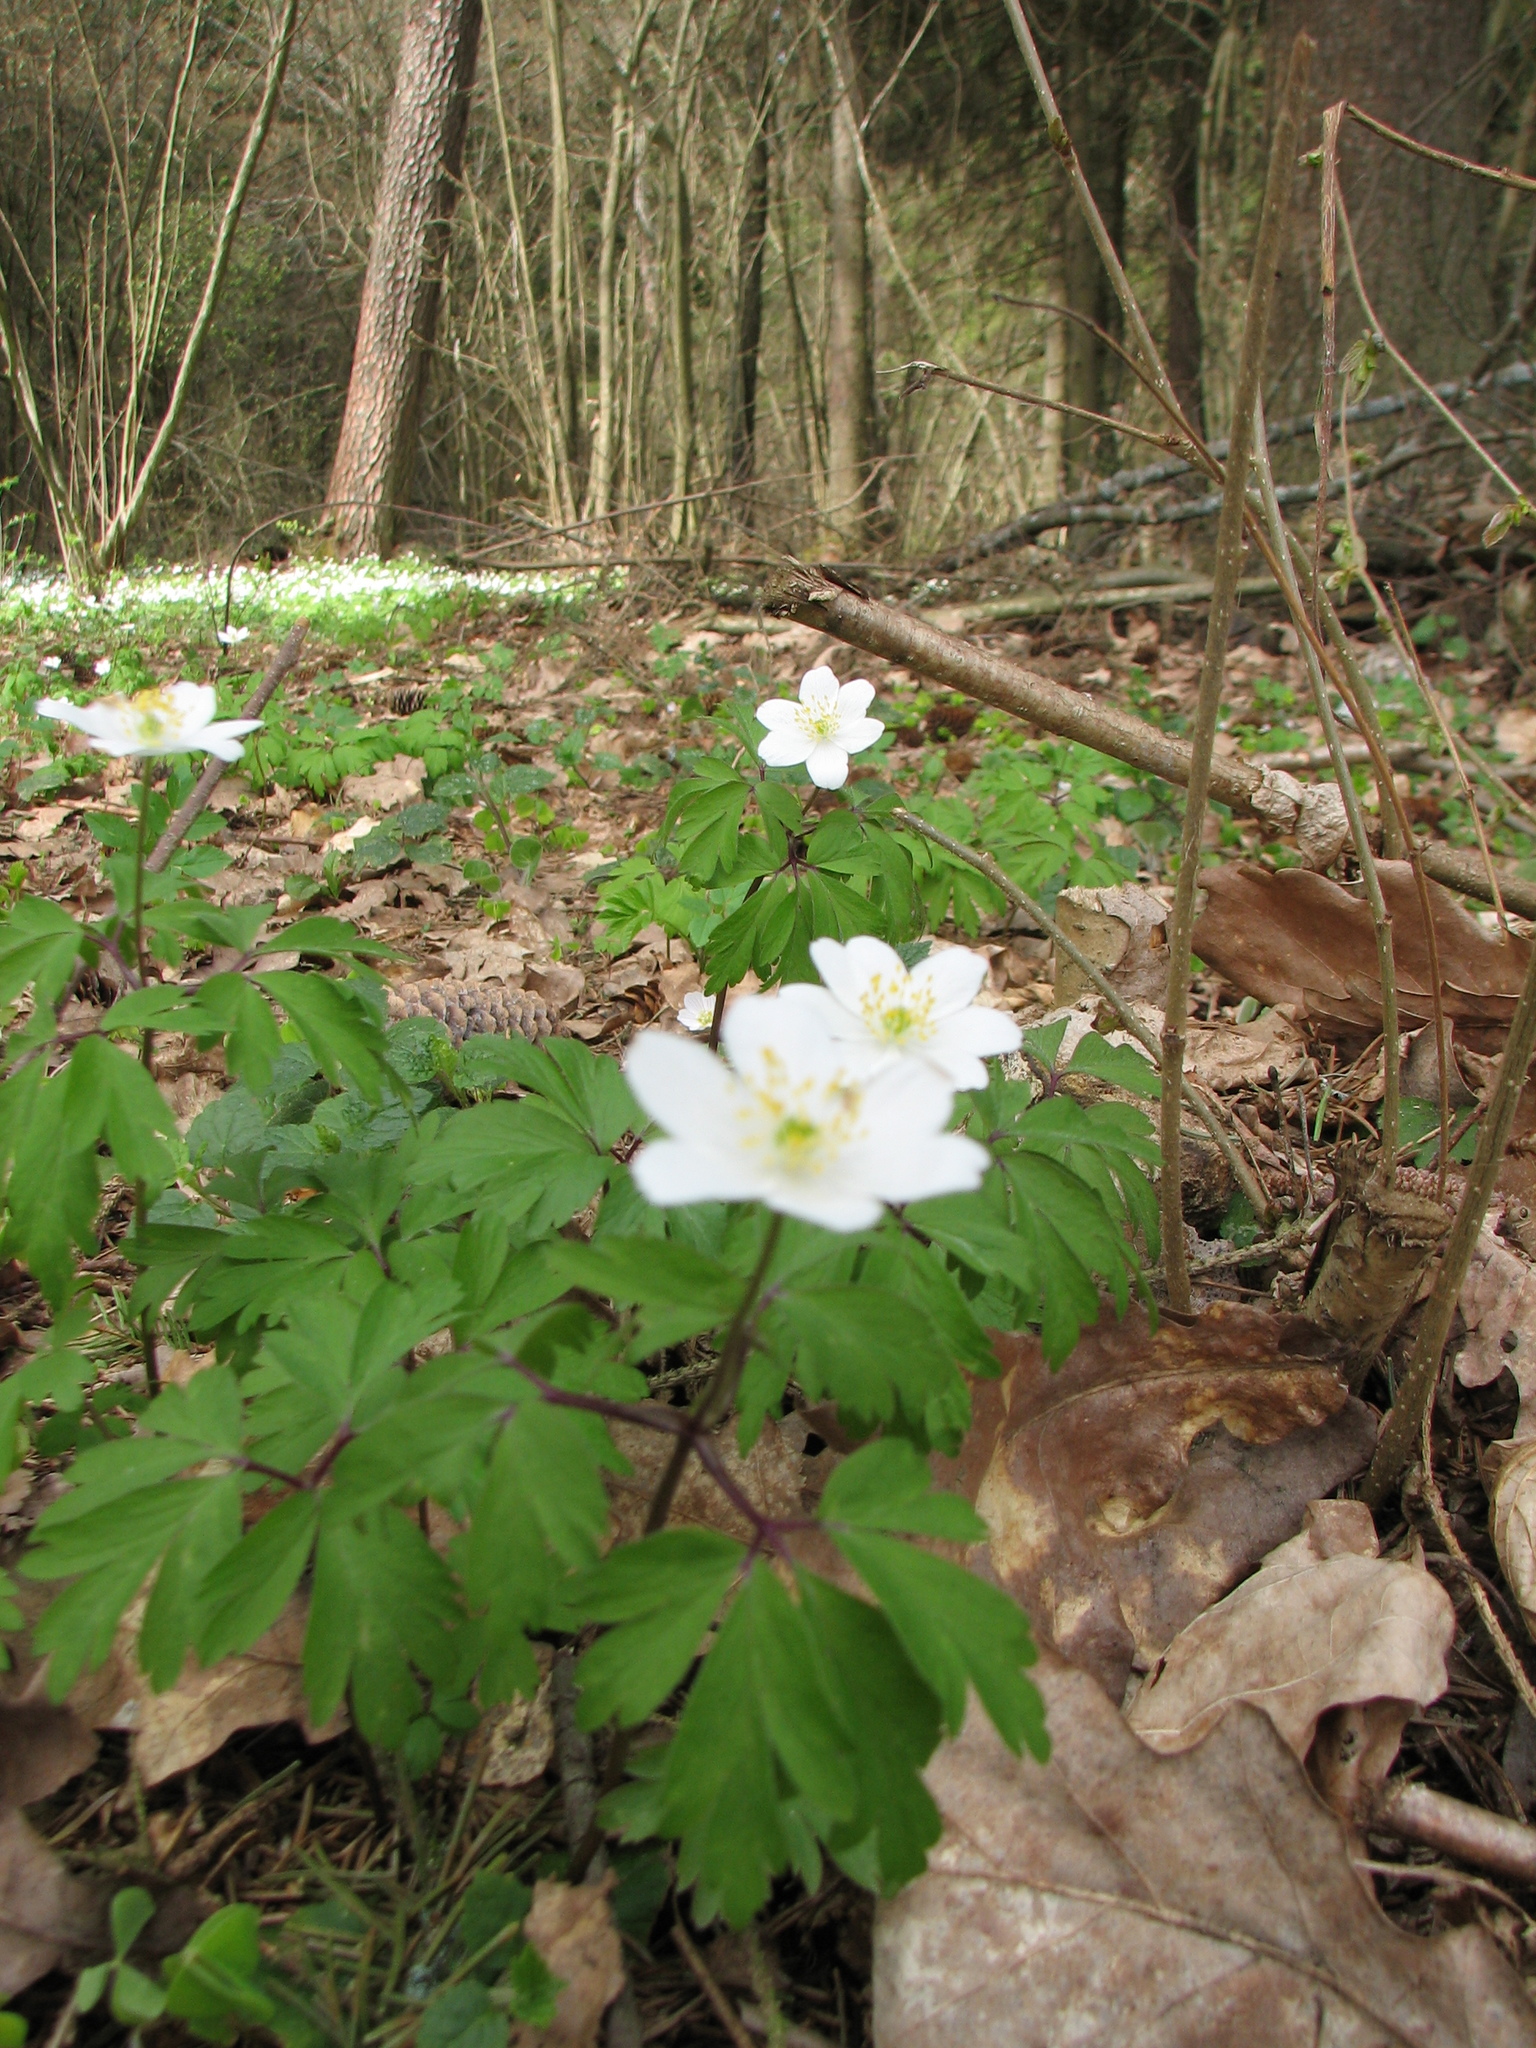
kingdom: Plantae
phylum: Tracheophyta
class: Magnoliopsida
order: Ranunculales
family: Ranunculaceae
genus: Anemone
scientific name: Anemone nemorosa
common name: Wood anemone
